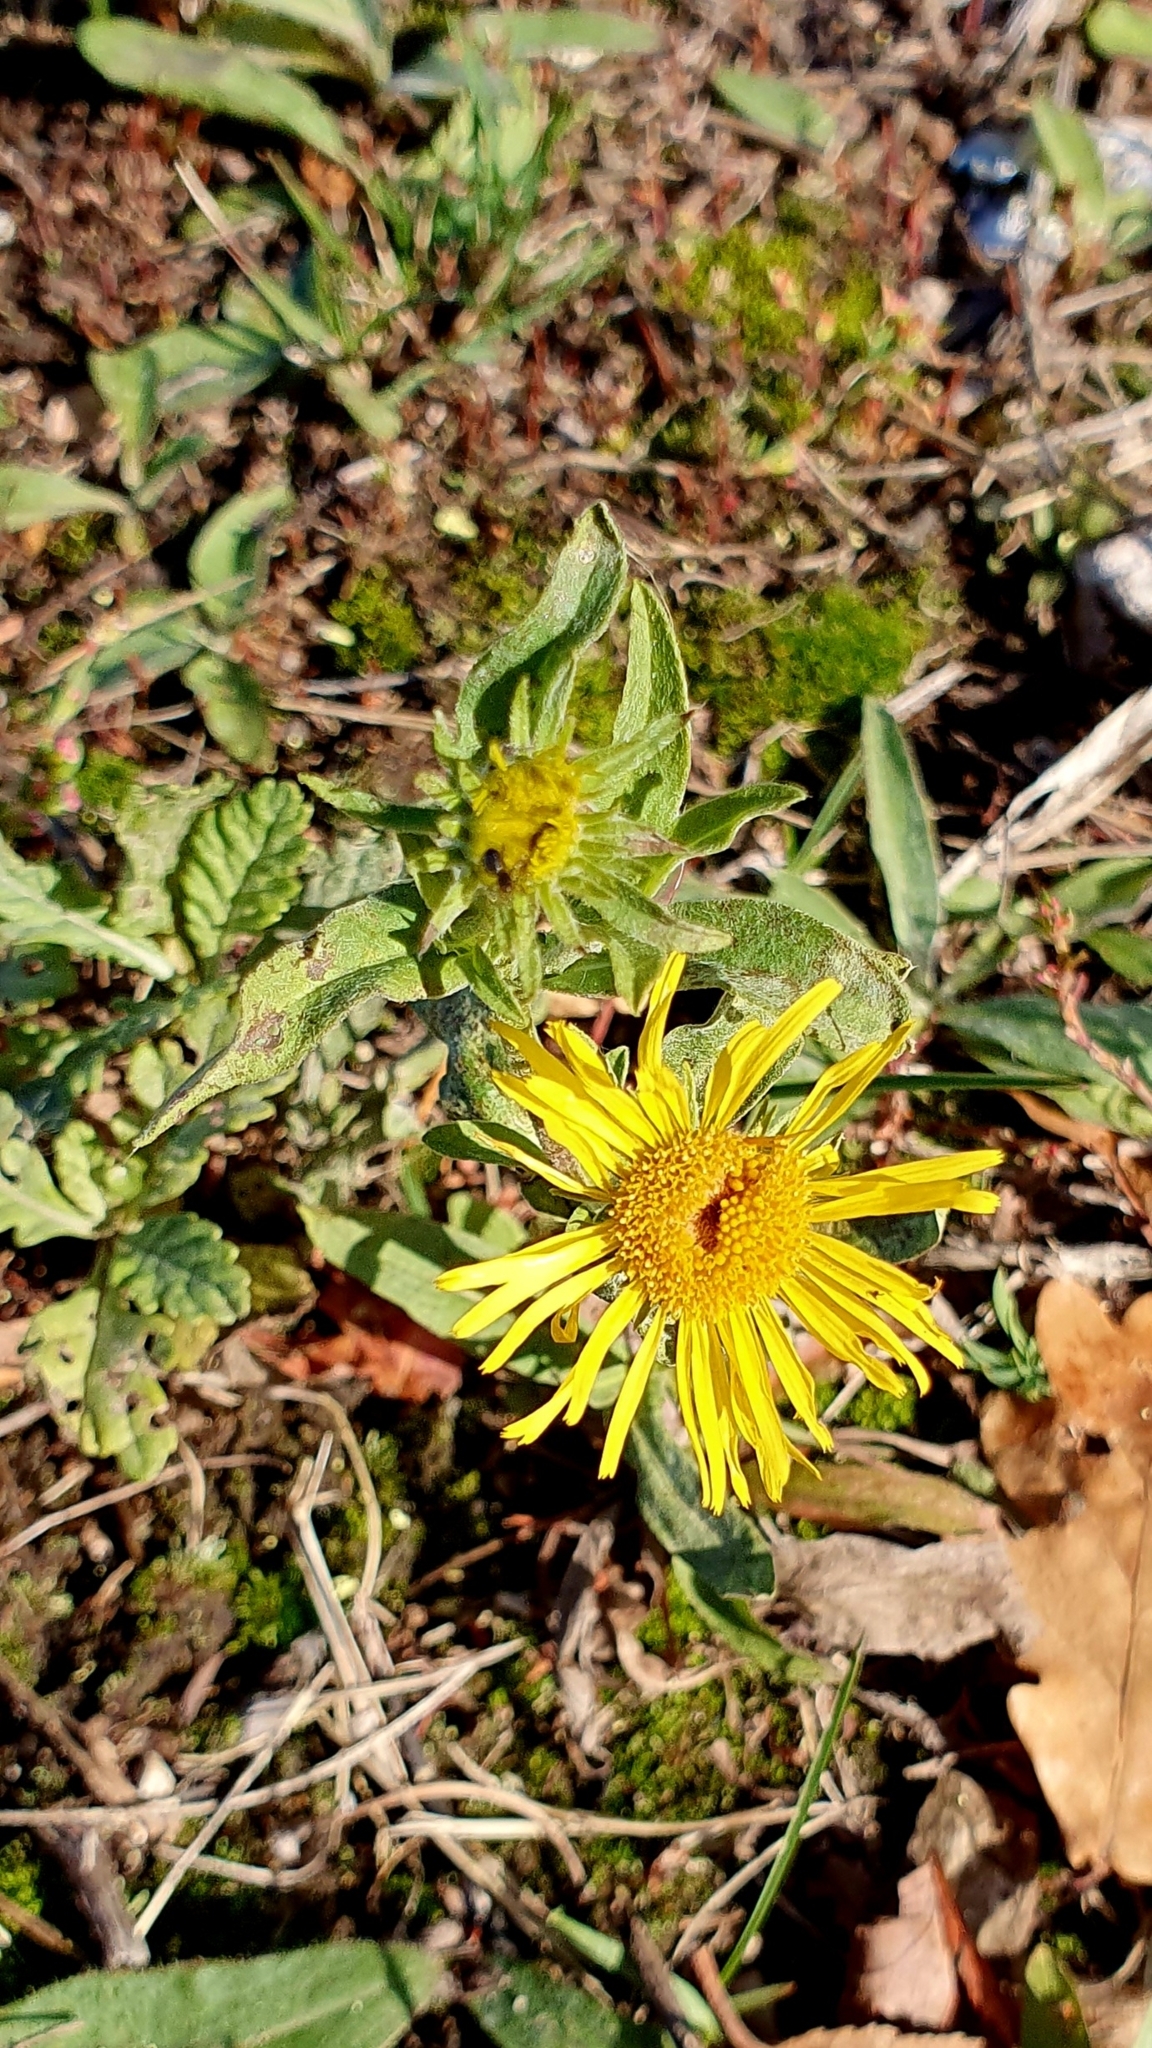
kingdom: Plantae
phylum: Tracheophyta
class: Magnoliopsida
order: Asterales
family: Asteraceae
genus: Pentanema
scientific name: Pentanema britannicum
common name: British elecampane
